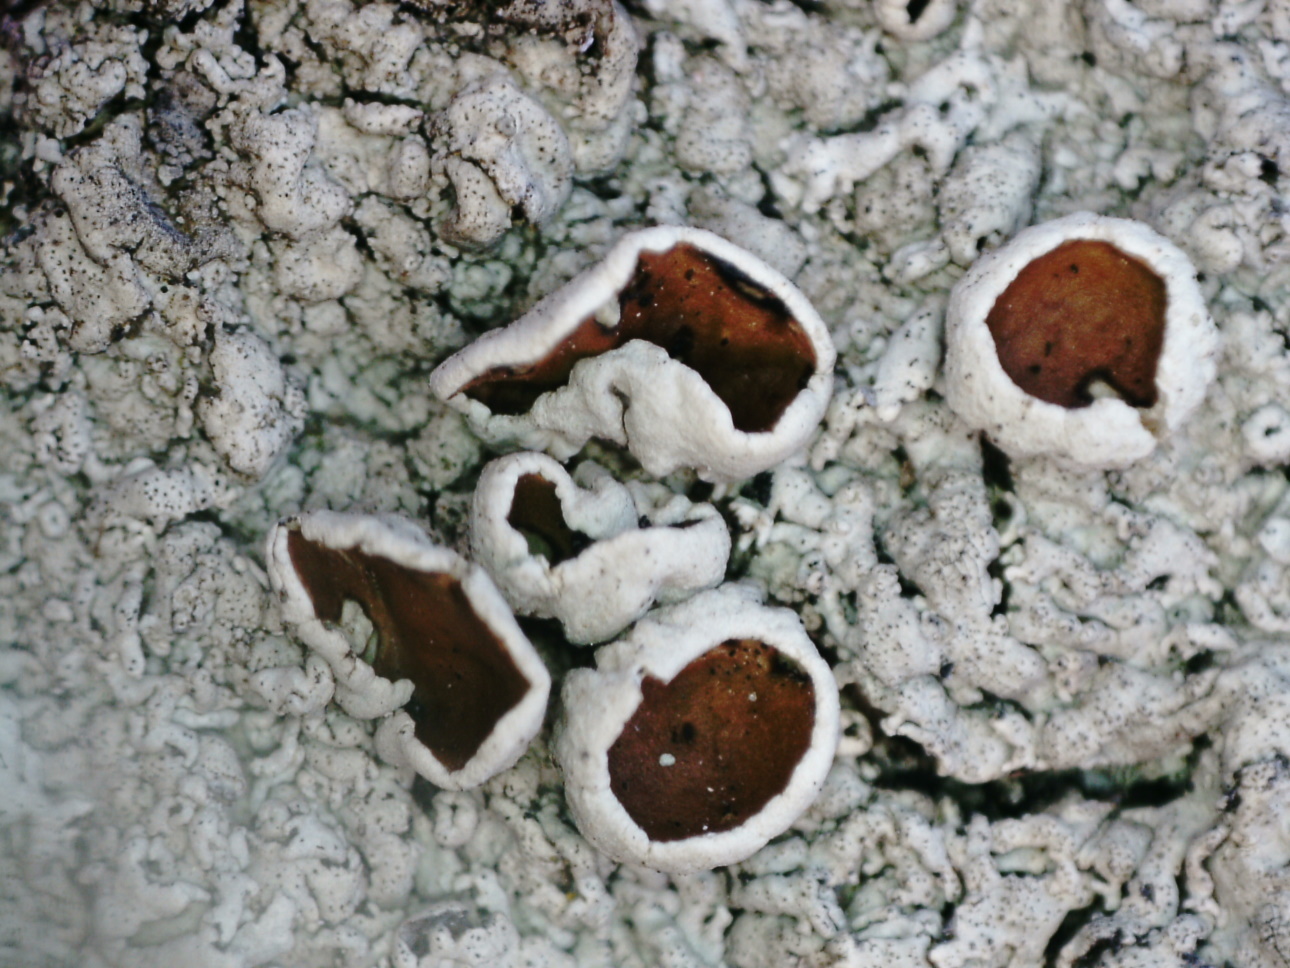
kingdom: Fungi
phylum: Ascomycota
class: Lecanoromycetes
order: Lecanorales
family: Parmeliaceae
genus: Arctoparmelia
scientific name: Arctoparmelia centrifuga
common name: Concentric ring lichen
